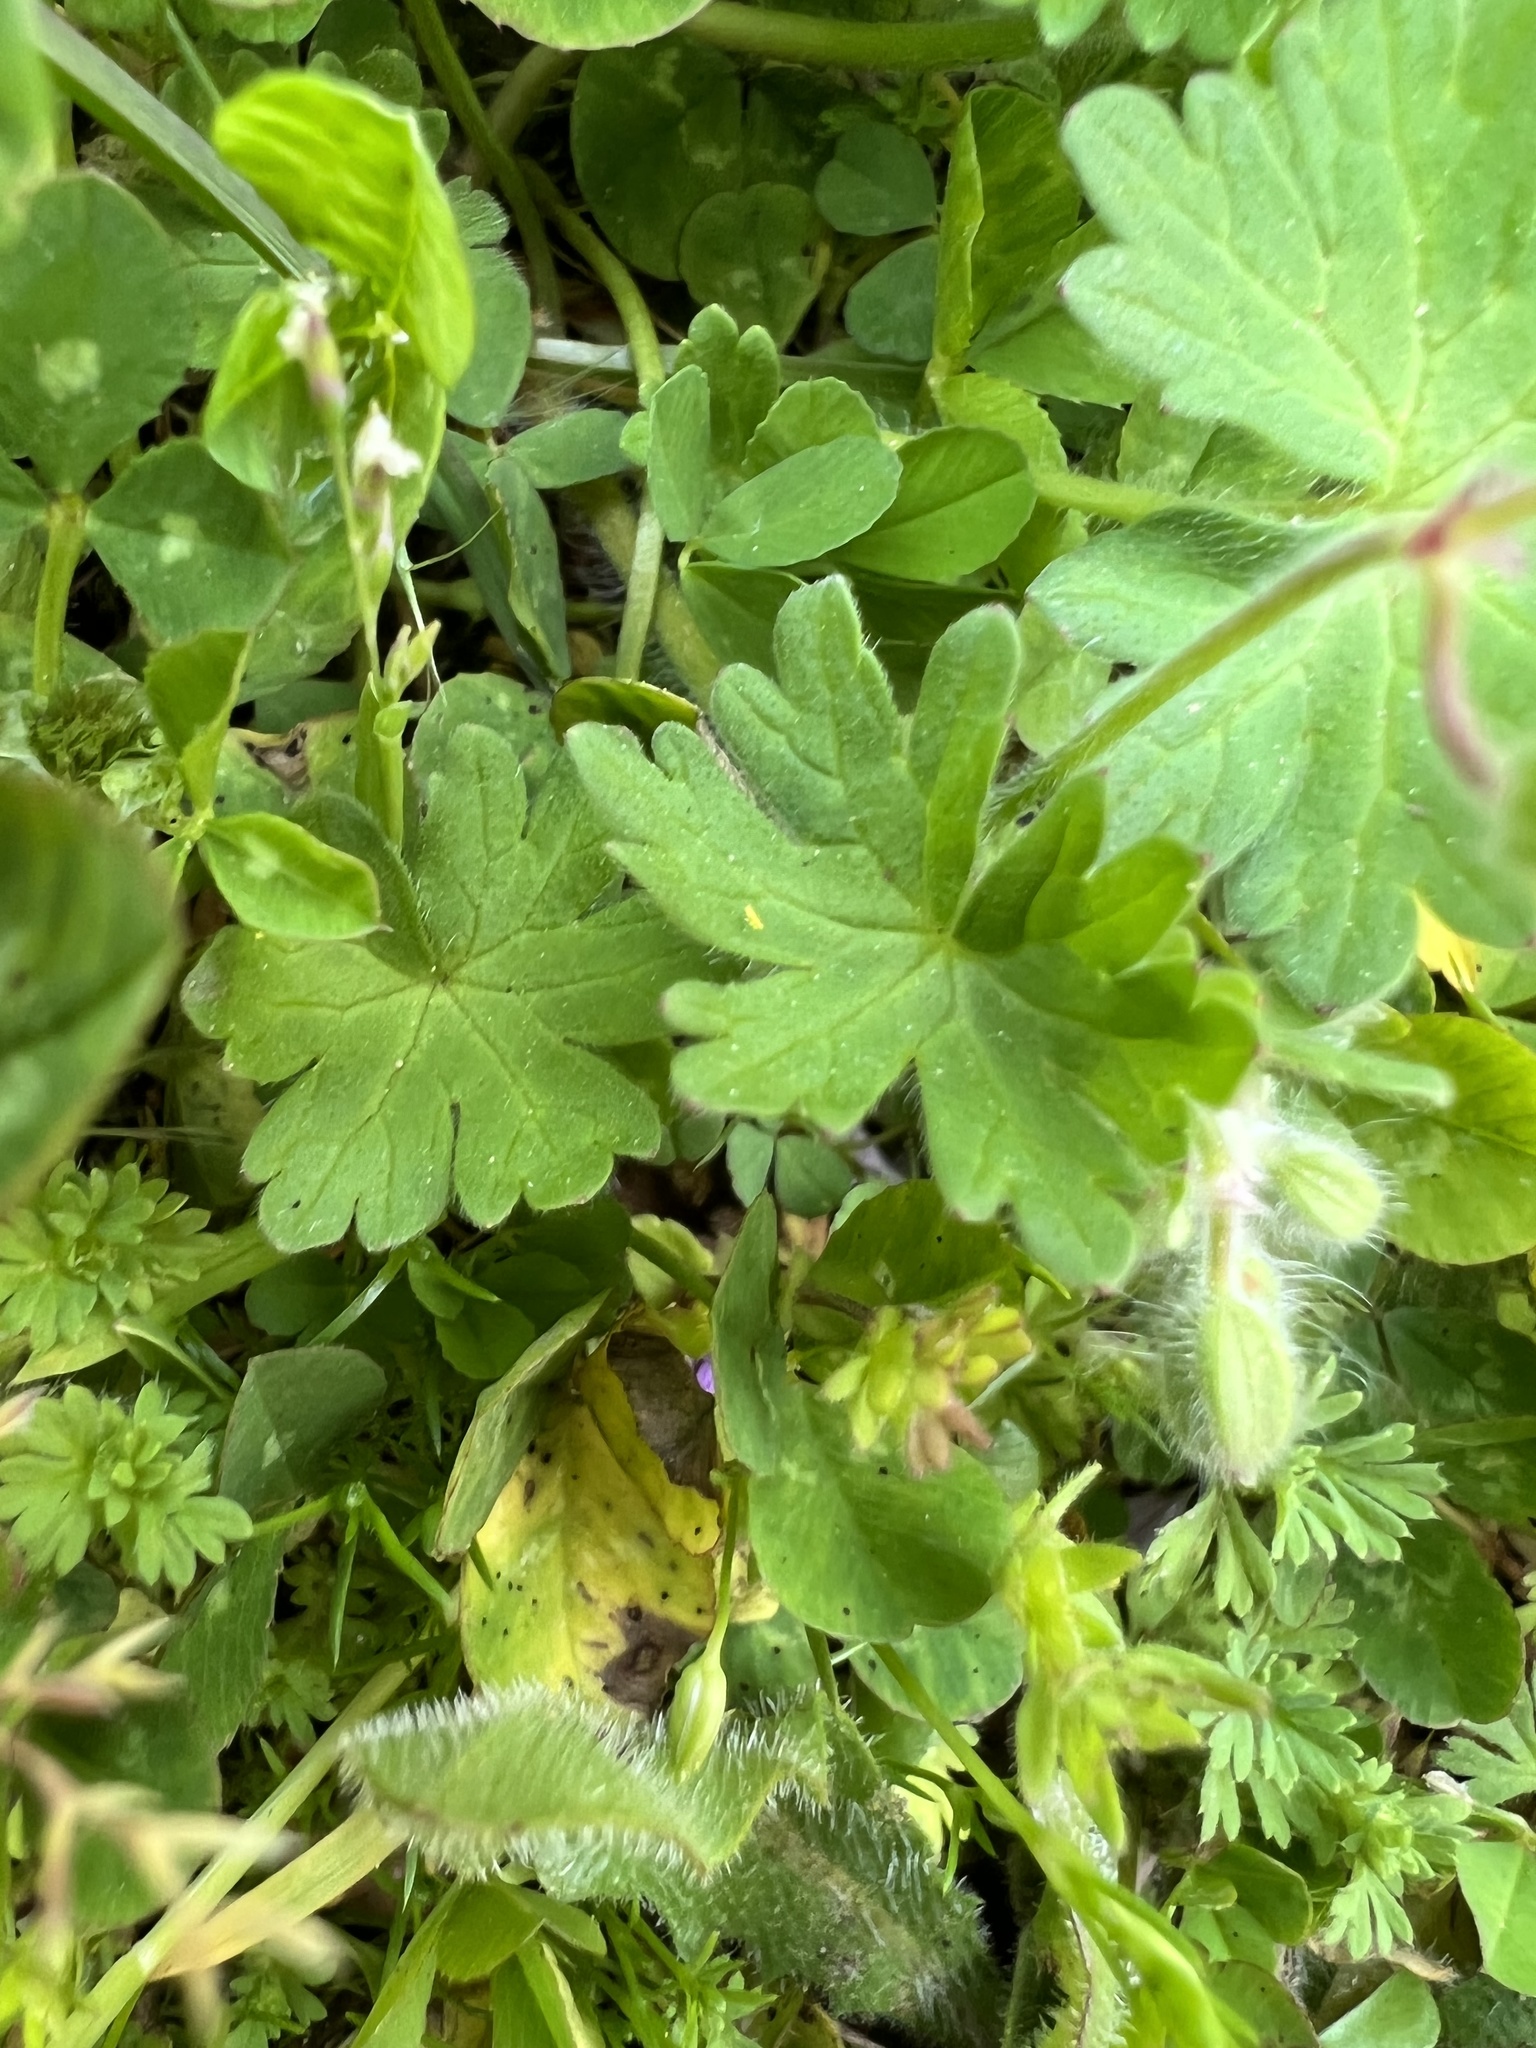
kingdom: Plantae
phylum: Tracheophyta
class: Magnoliopsida
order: Geraniales
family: Geraniaceae
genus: Geranium
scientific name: Geranium molle
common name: Dove's-foot crane's-bill
